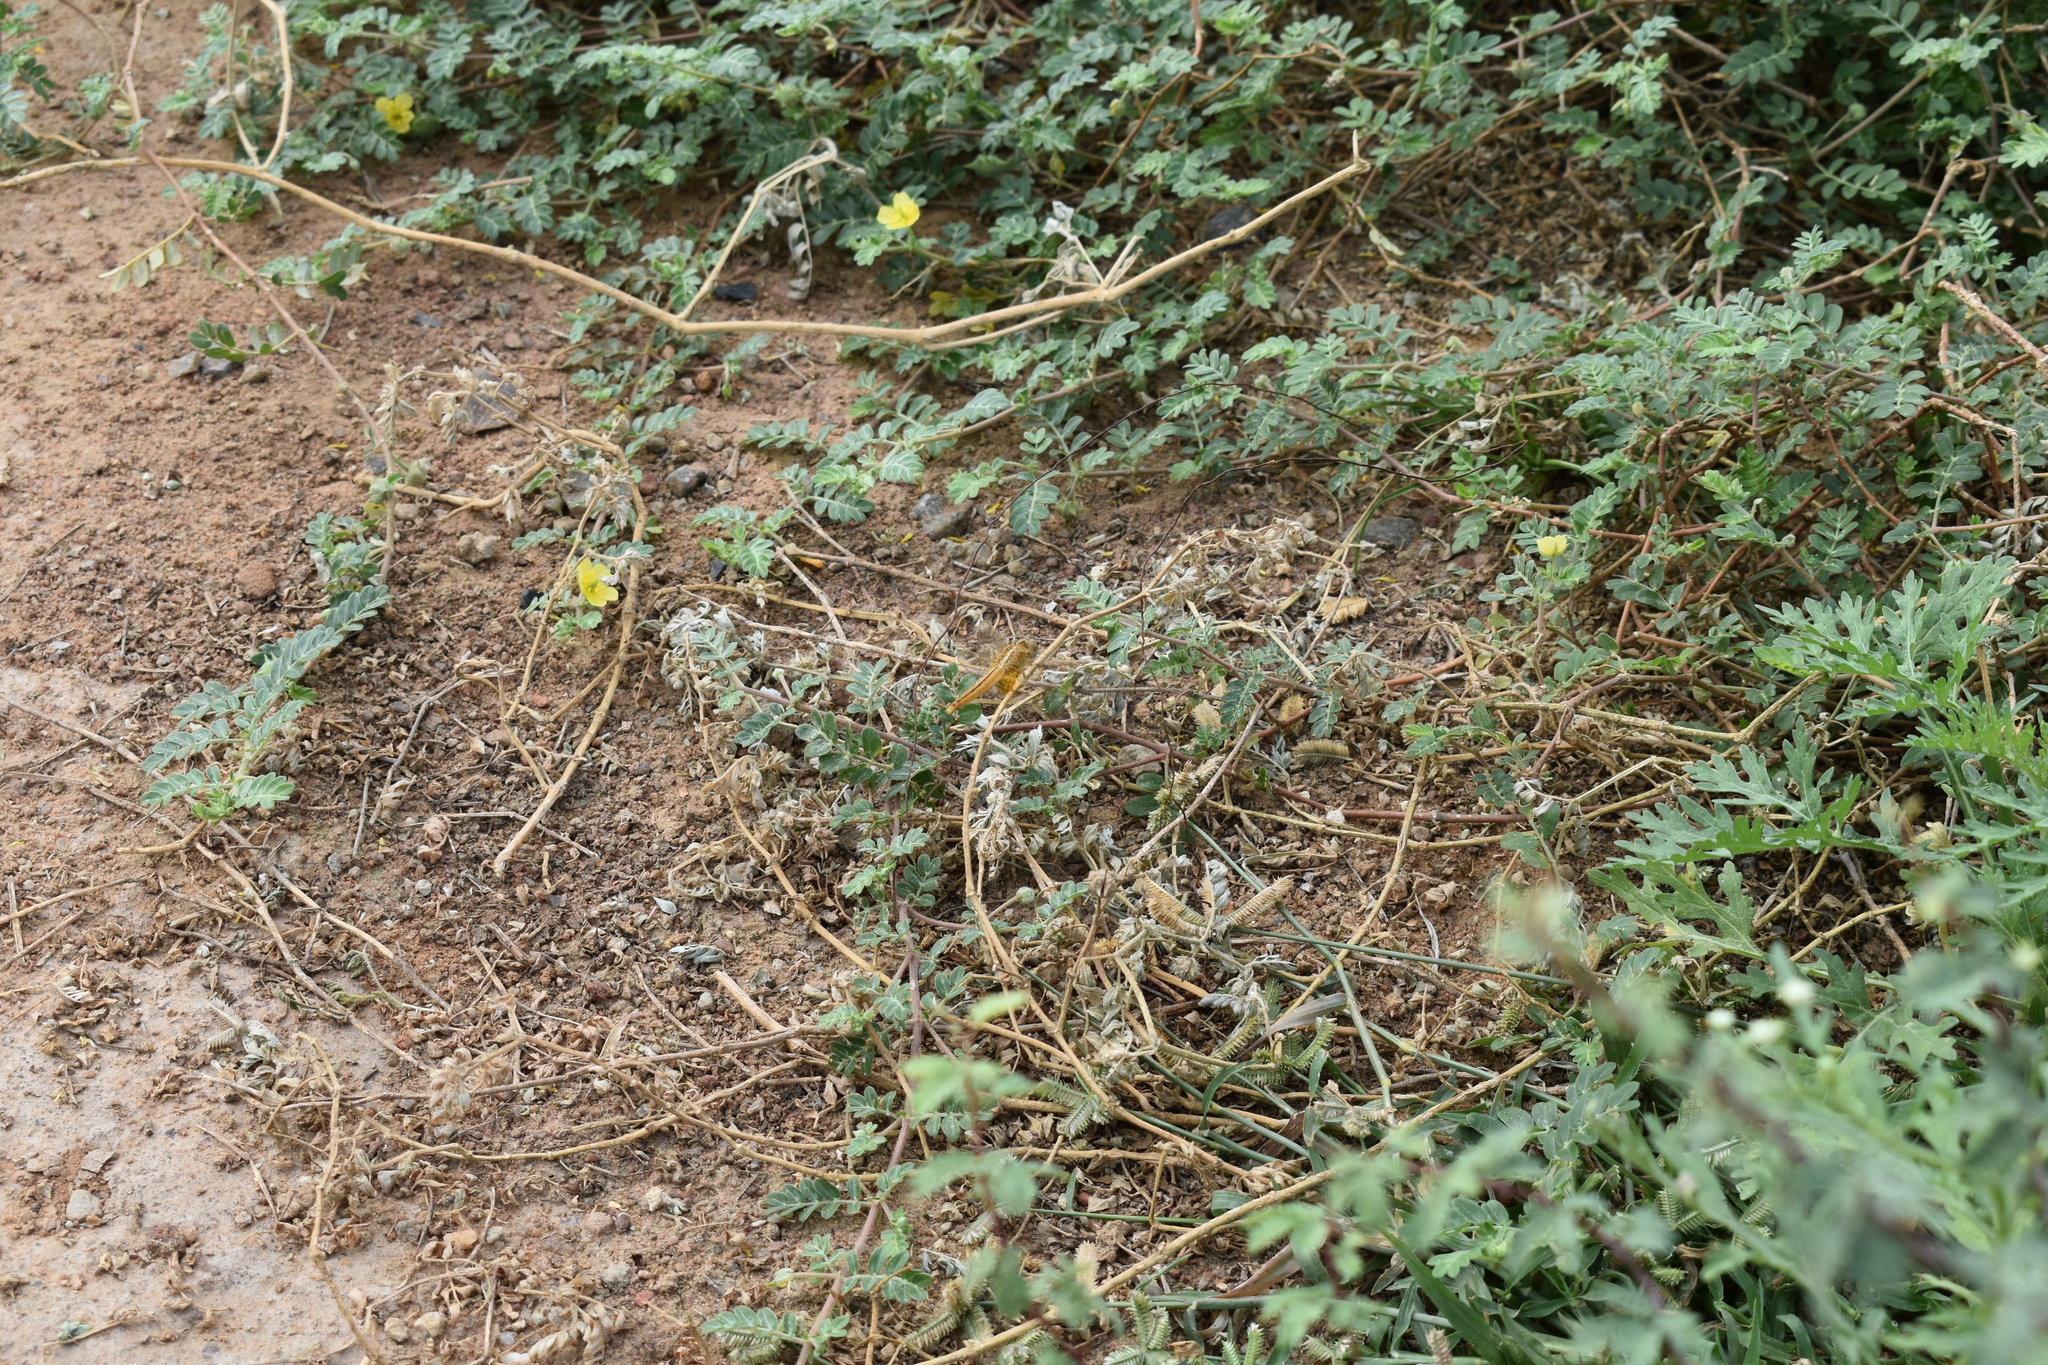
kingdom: Animalia
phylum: Arthropoda
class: Insecta
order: Odonata
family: Libellulidae
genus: Crocothemis
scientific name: Crocothemis servilia
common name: Scarlet skimmer
